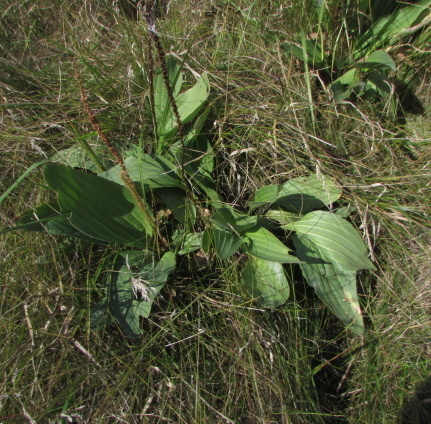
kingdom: Plantae
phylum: Tracheophyta
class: Magnoliopsida
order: Lamiales
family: Plantaginaceae
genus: Plantago
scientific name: Plantago cornuti
